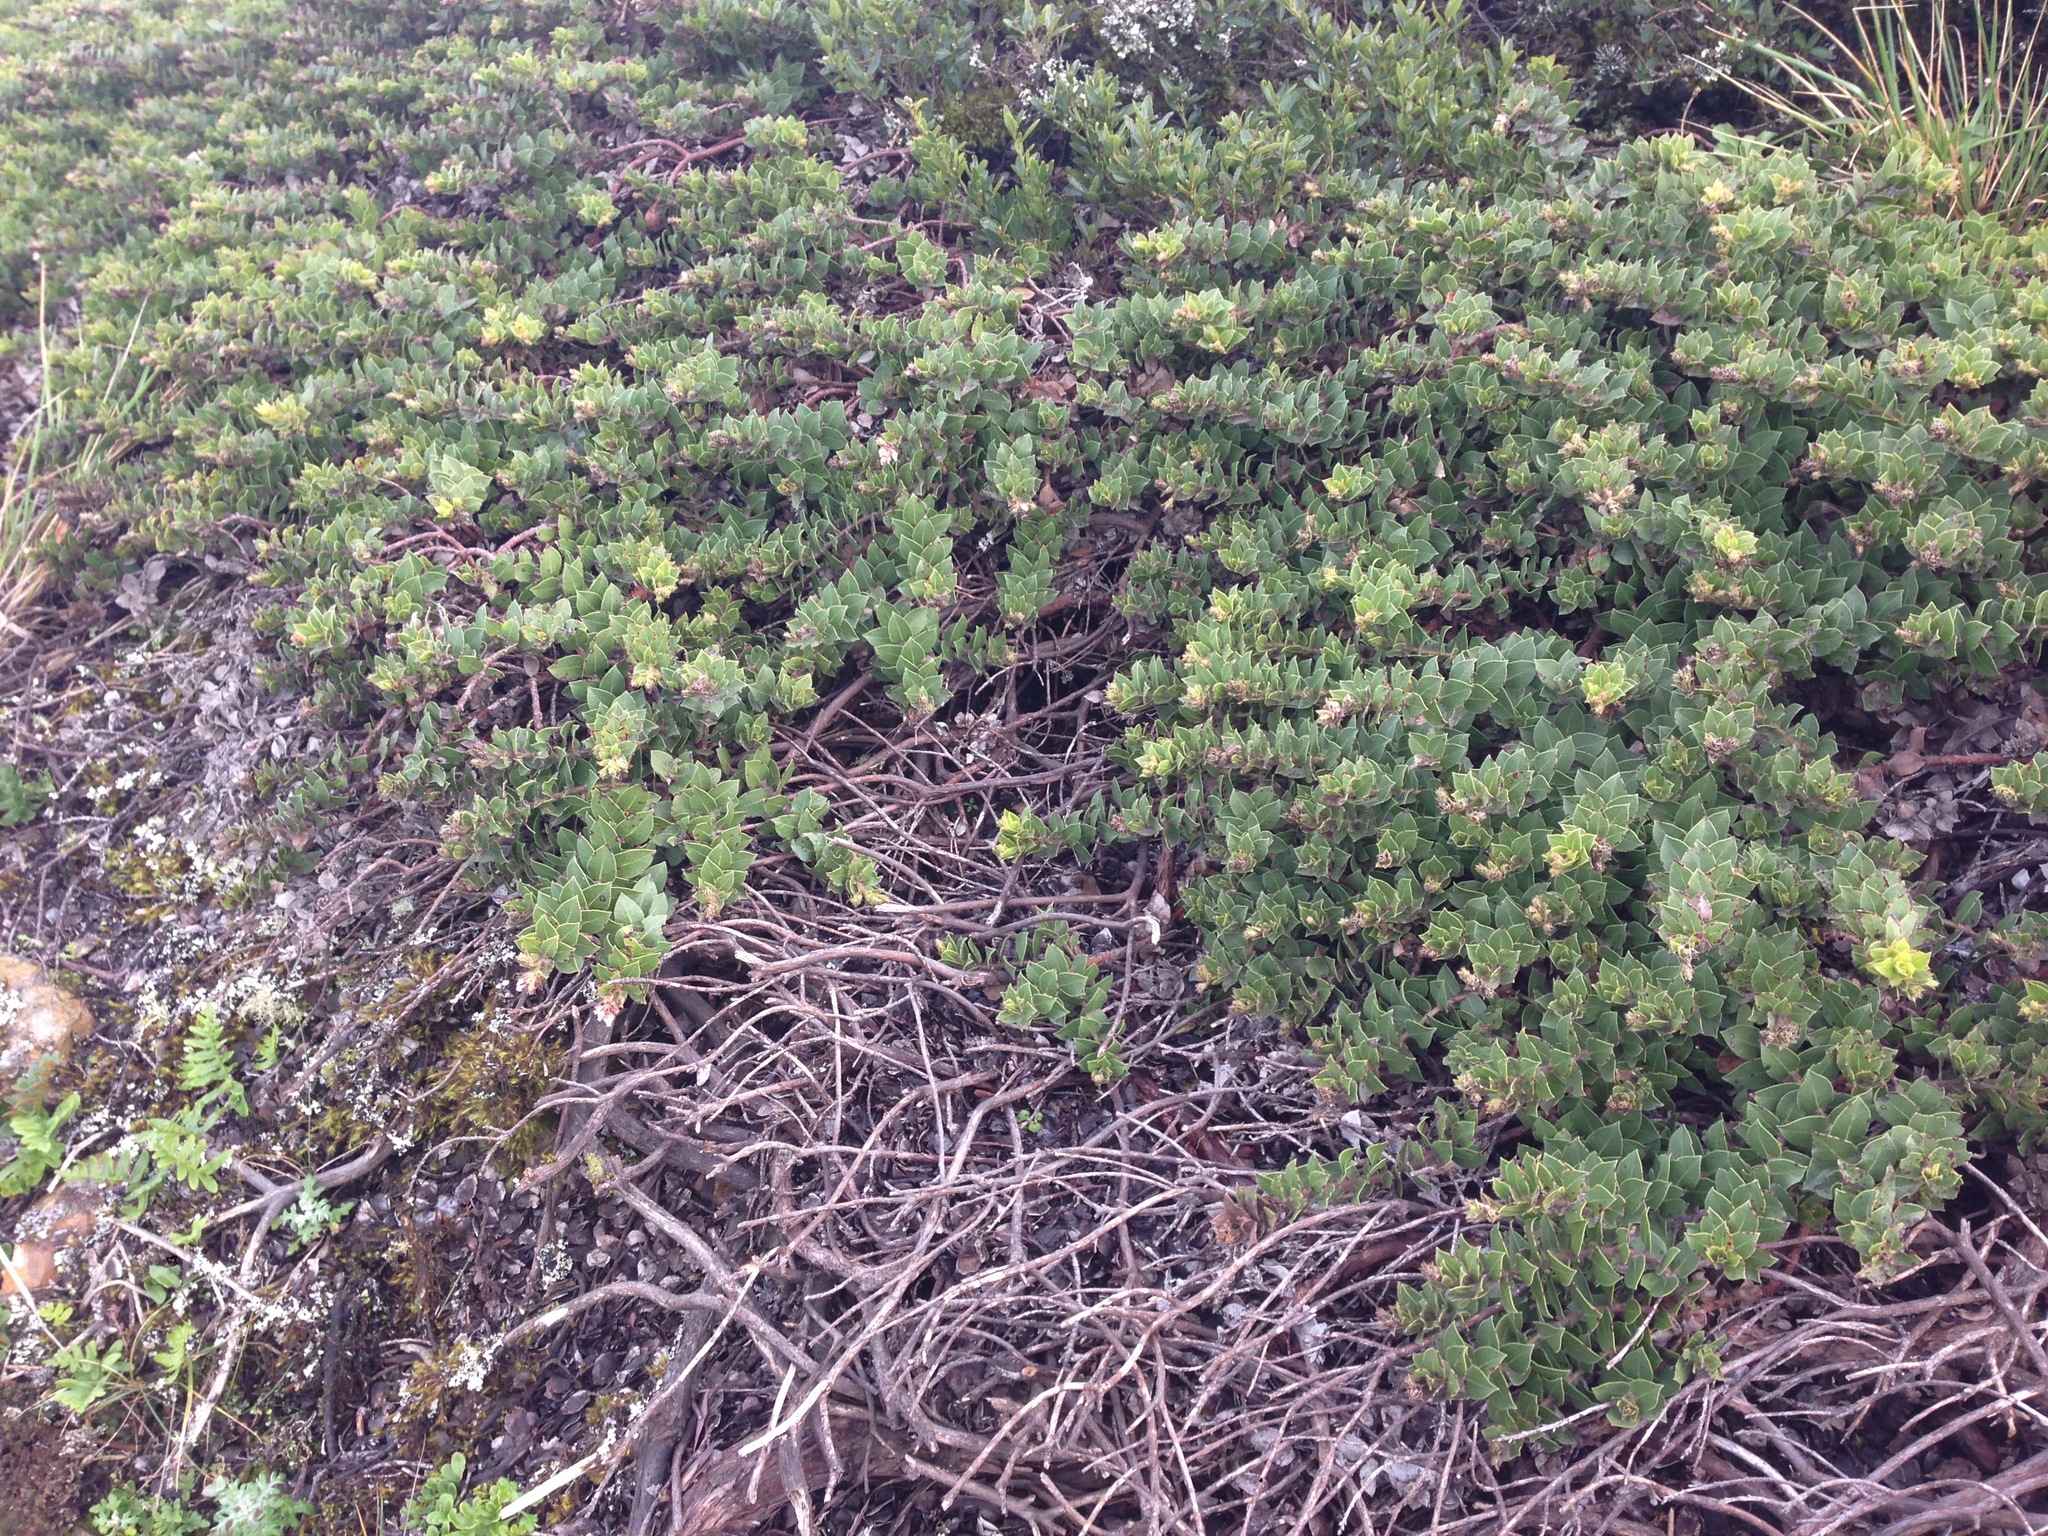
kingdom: Plantae
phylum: Tracheophyta
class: Magnoliopsida
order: Ericales
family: Ericaceae
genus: Arctostaphylos
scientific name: Arctostaphylos imbricata
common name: San bruno mountain manzanita
